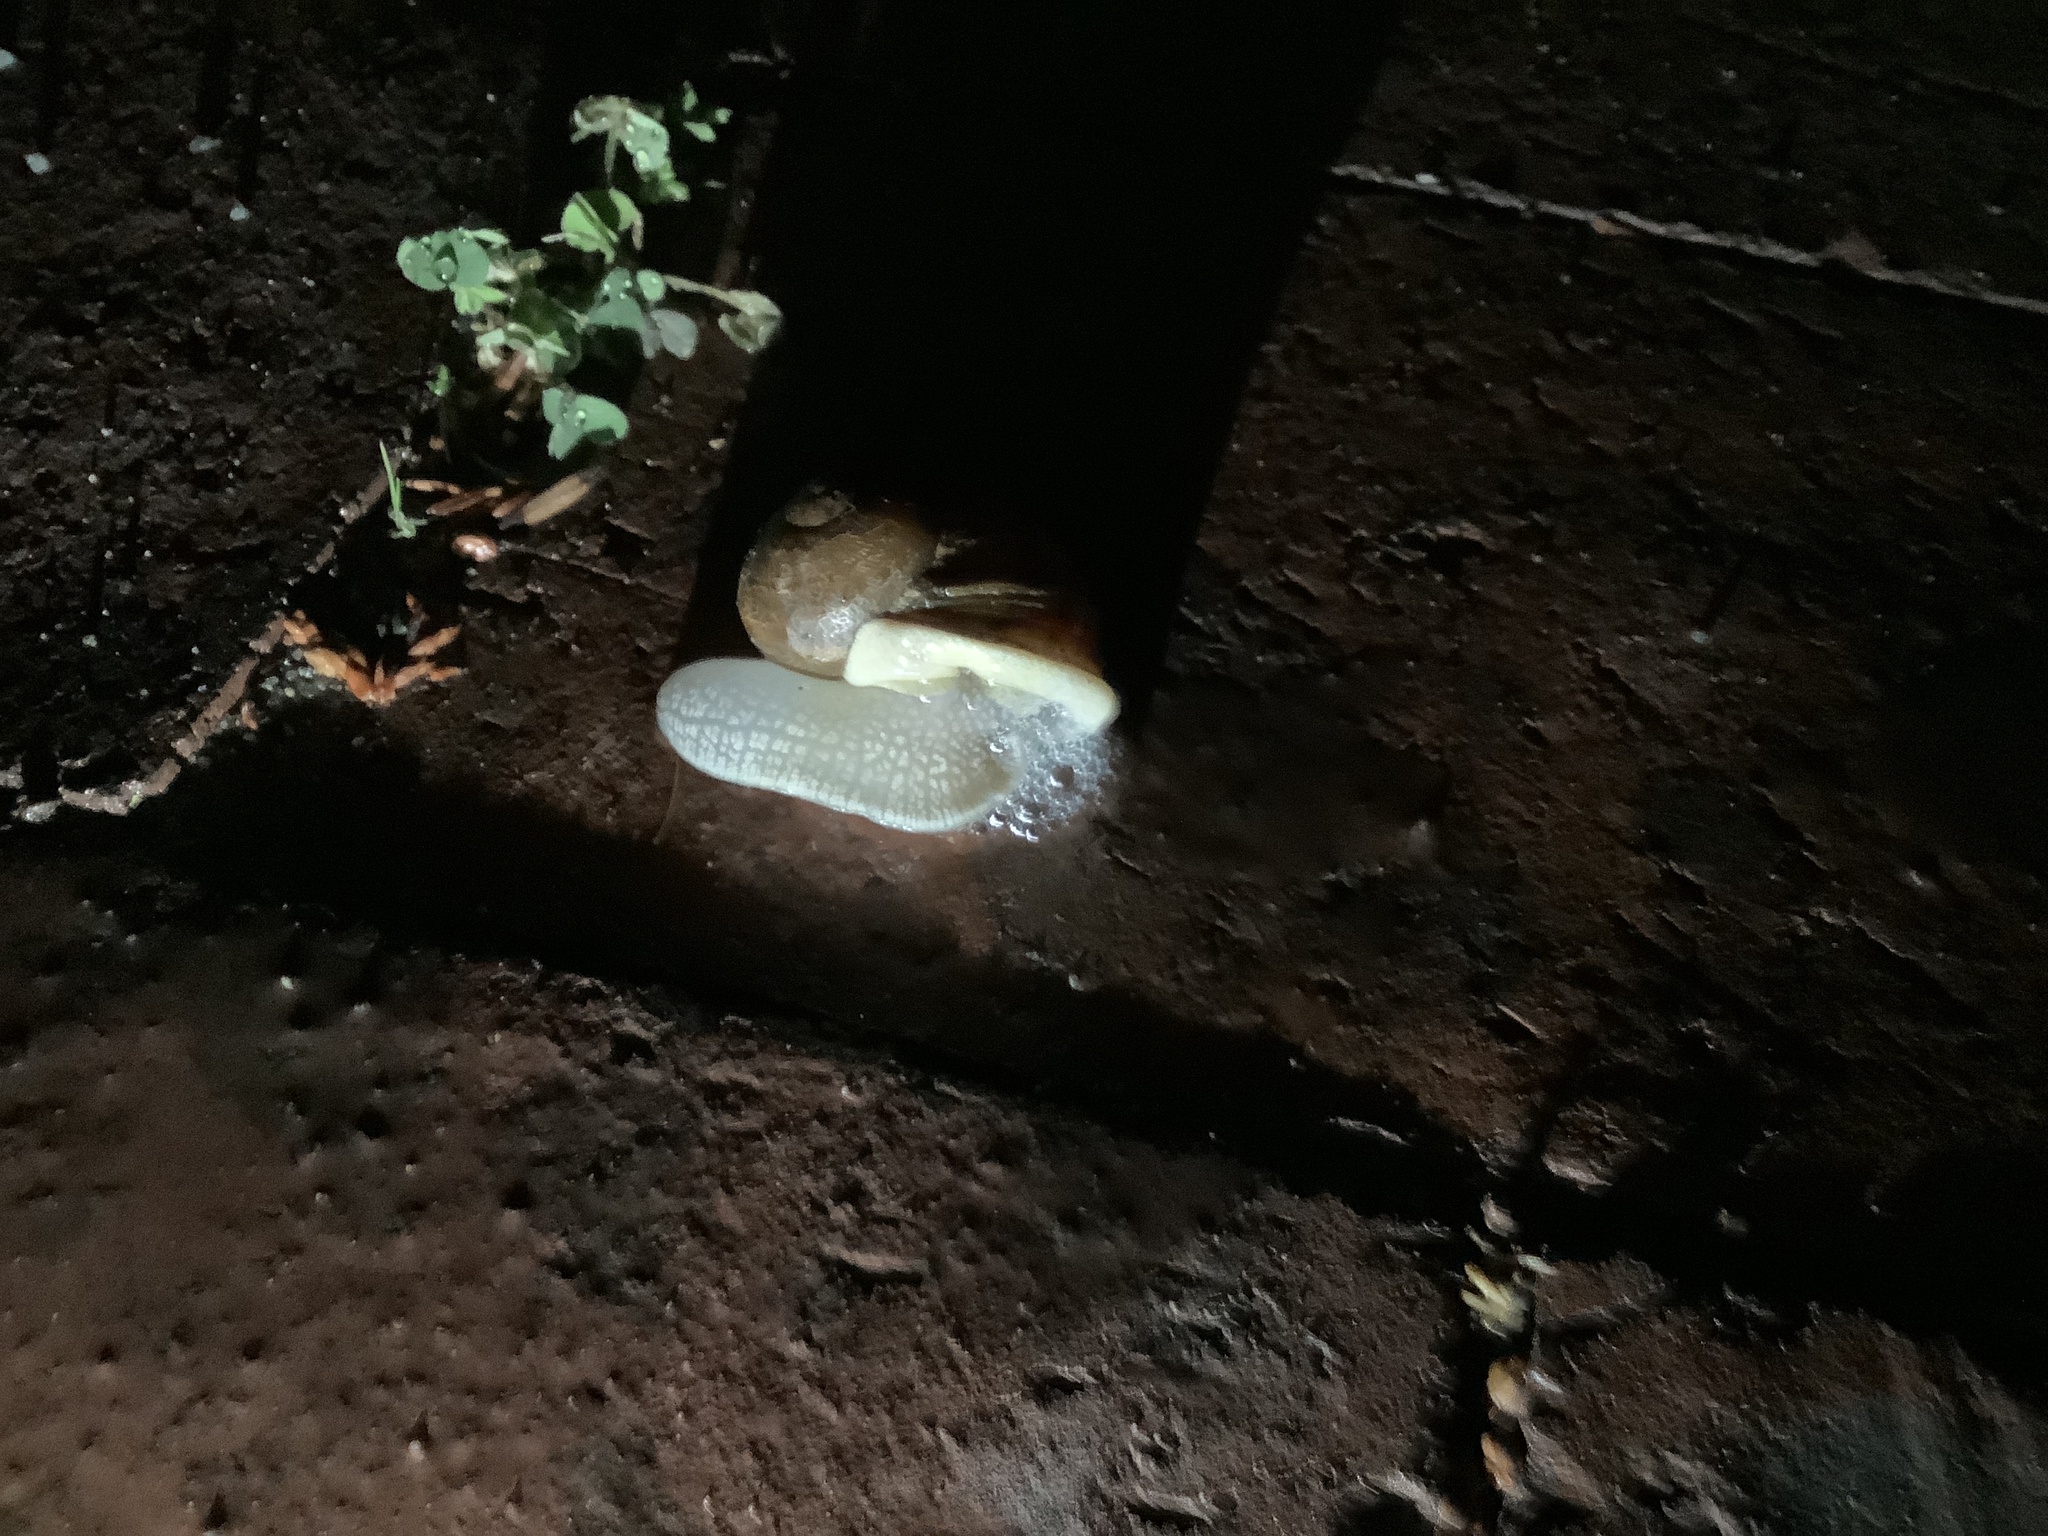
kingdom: Animalia
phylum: Mollusca
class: Gastropoda
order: Stylommatophora
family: Helicidae
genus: Cornu
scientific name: Cornu aspersum
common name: Brown garden snail
